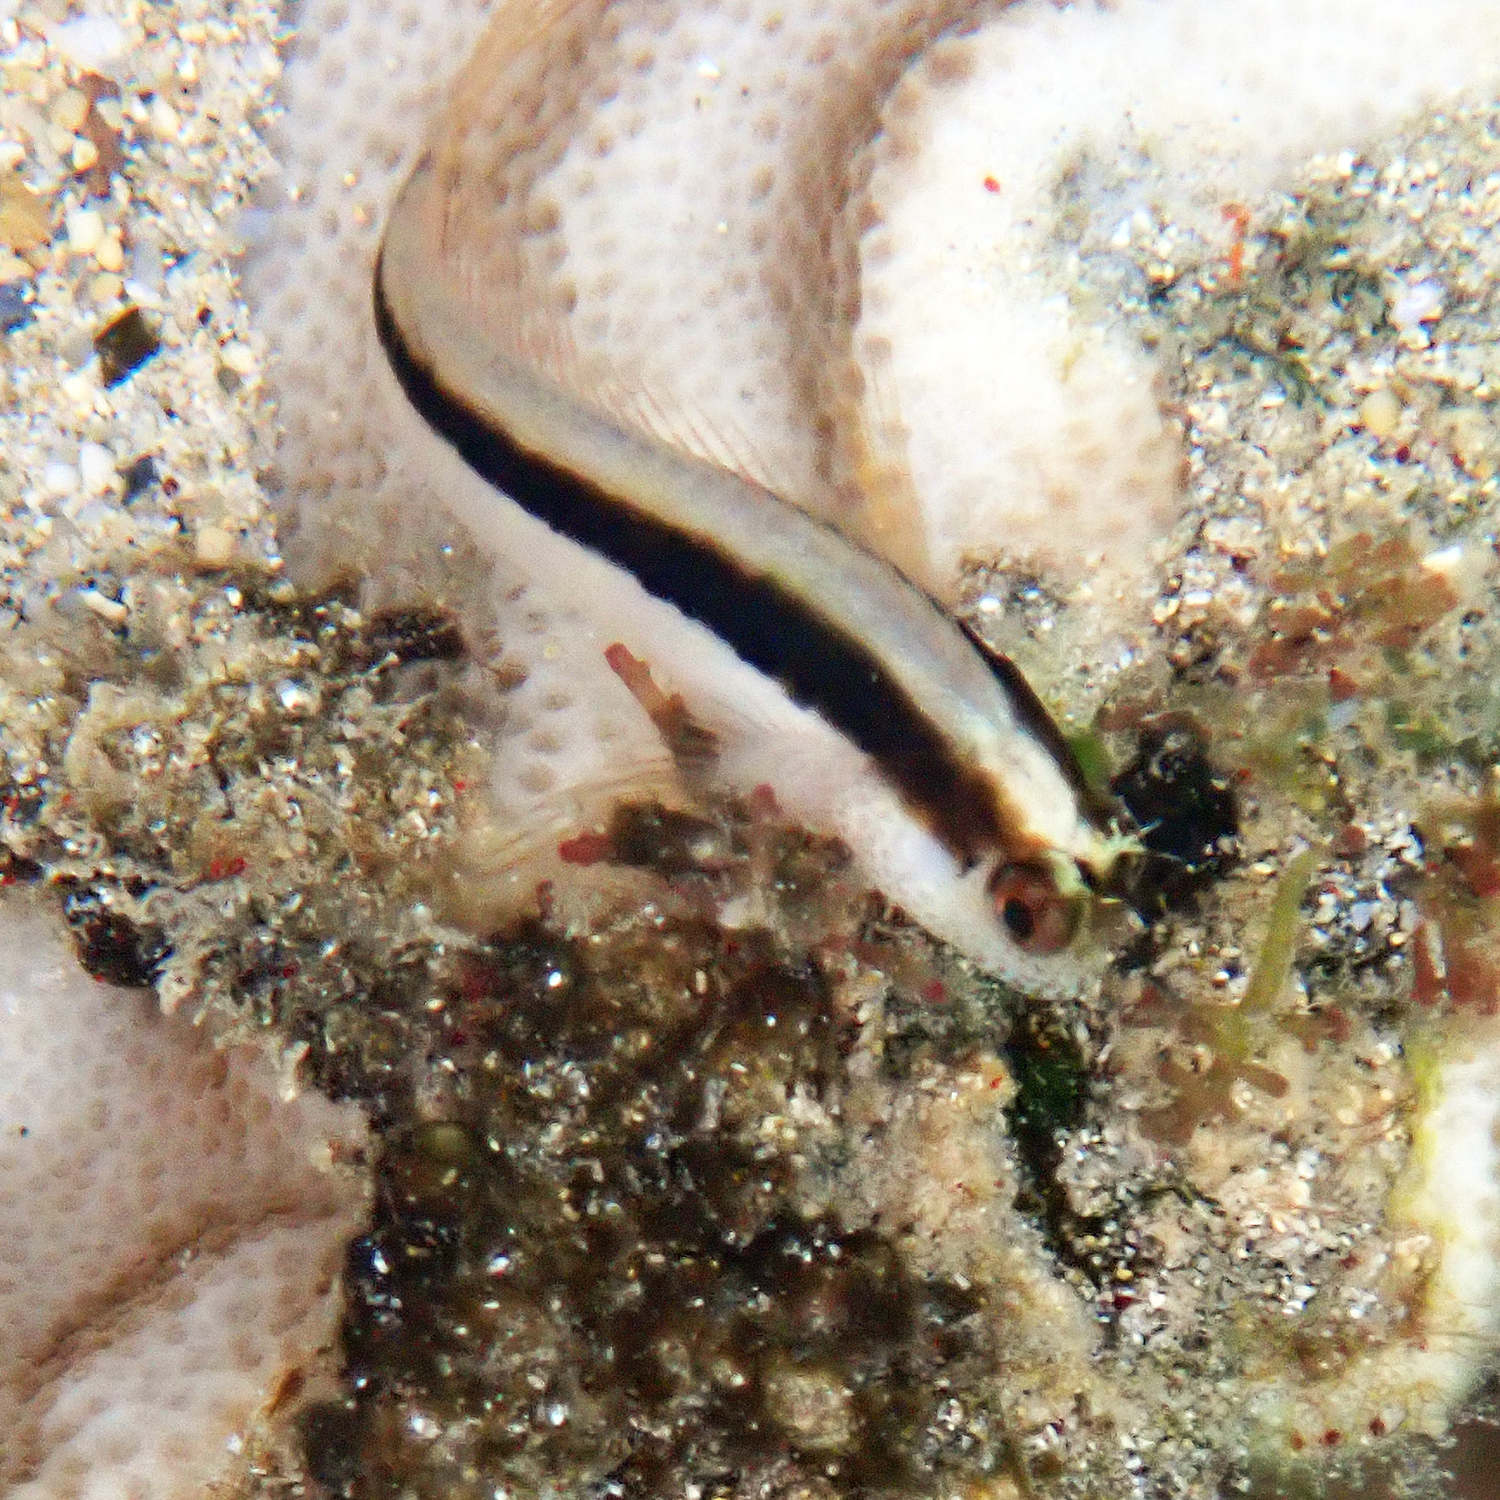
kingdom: Animalia
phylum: Chordata
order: Perciformes
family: Blenniidae
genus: Parablennius
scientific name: Parablennius serratolineatus
